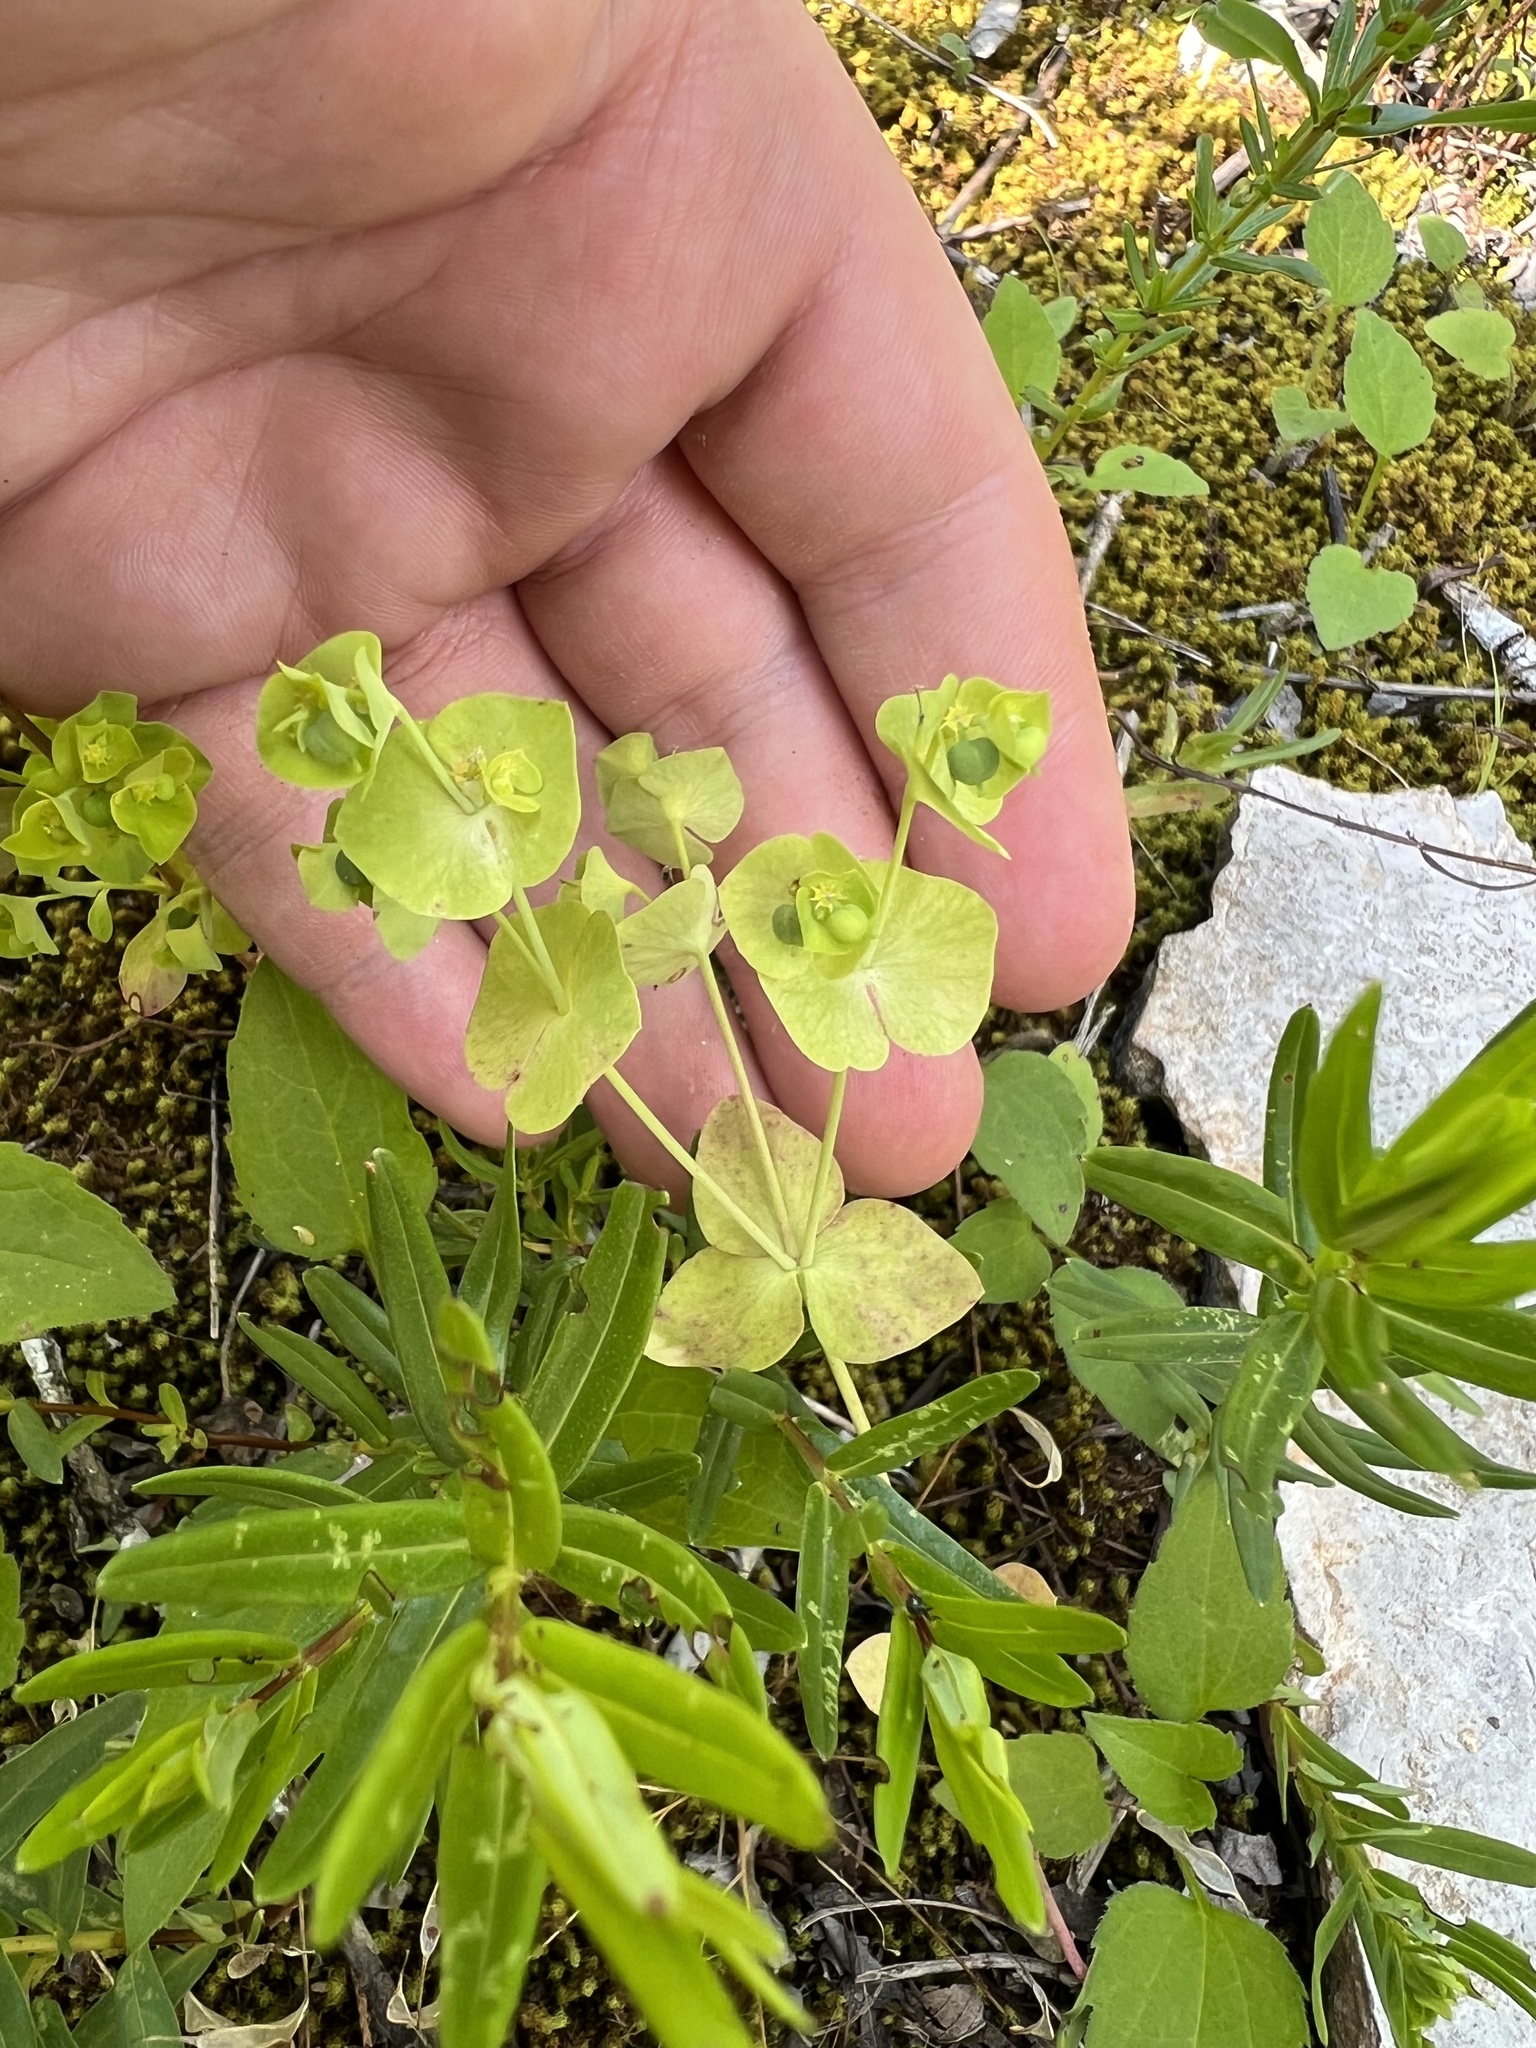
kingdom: Plantae
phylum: Tracheophyta
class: Magnoliopsida
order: Malpighiales
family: Euphorbiaceae
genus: Euphorbia
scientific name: Euphorbia ouachitana
